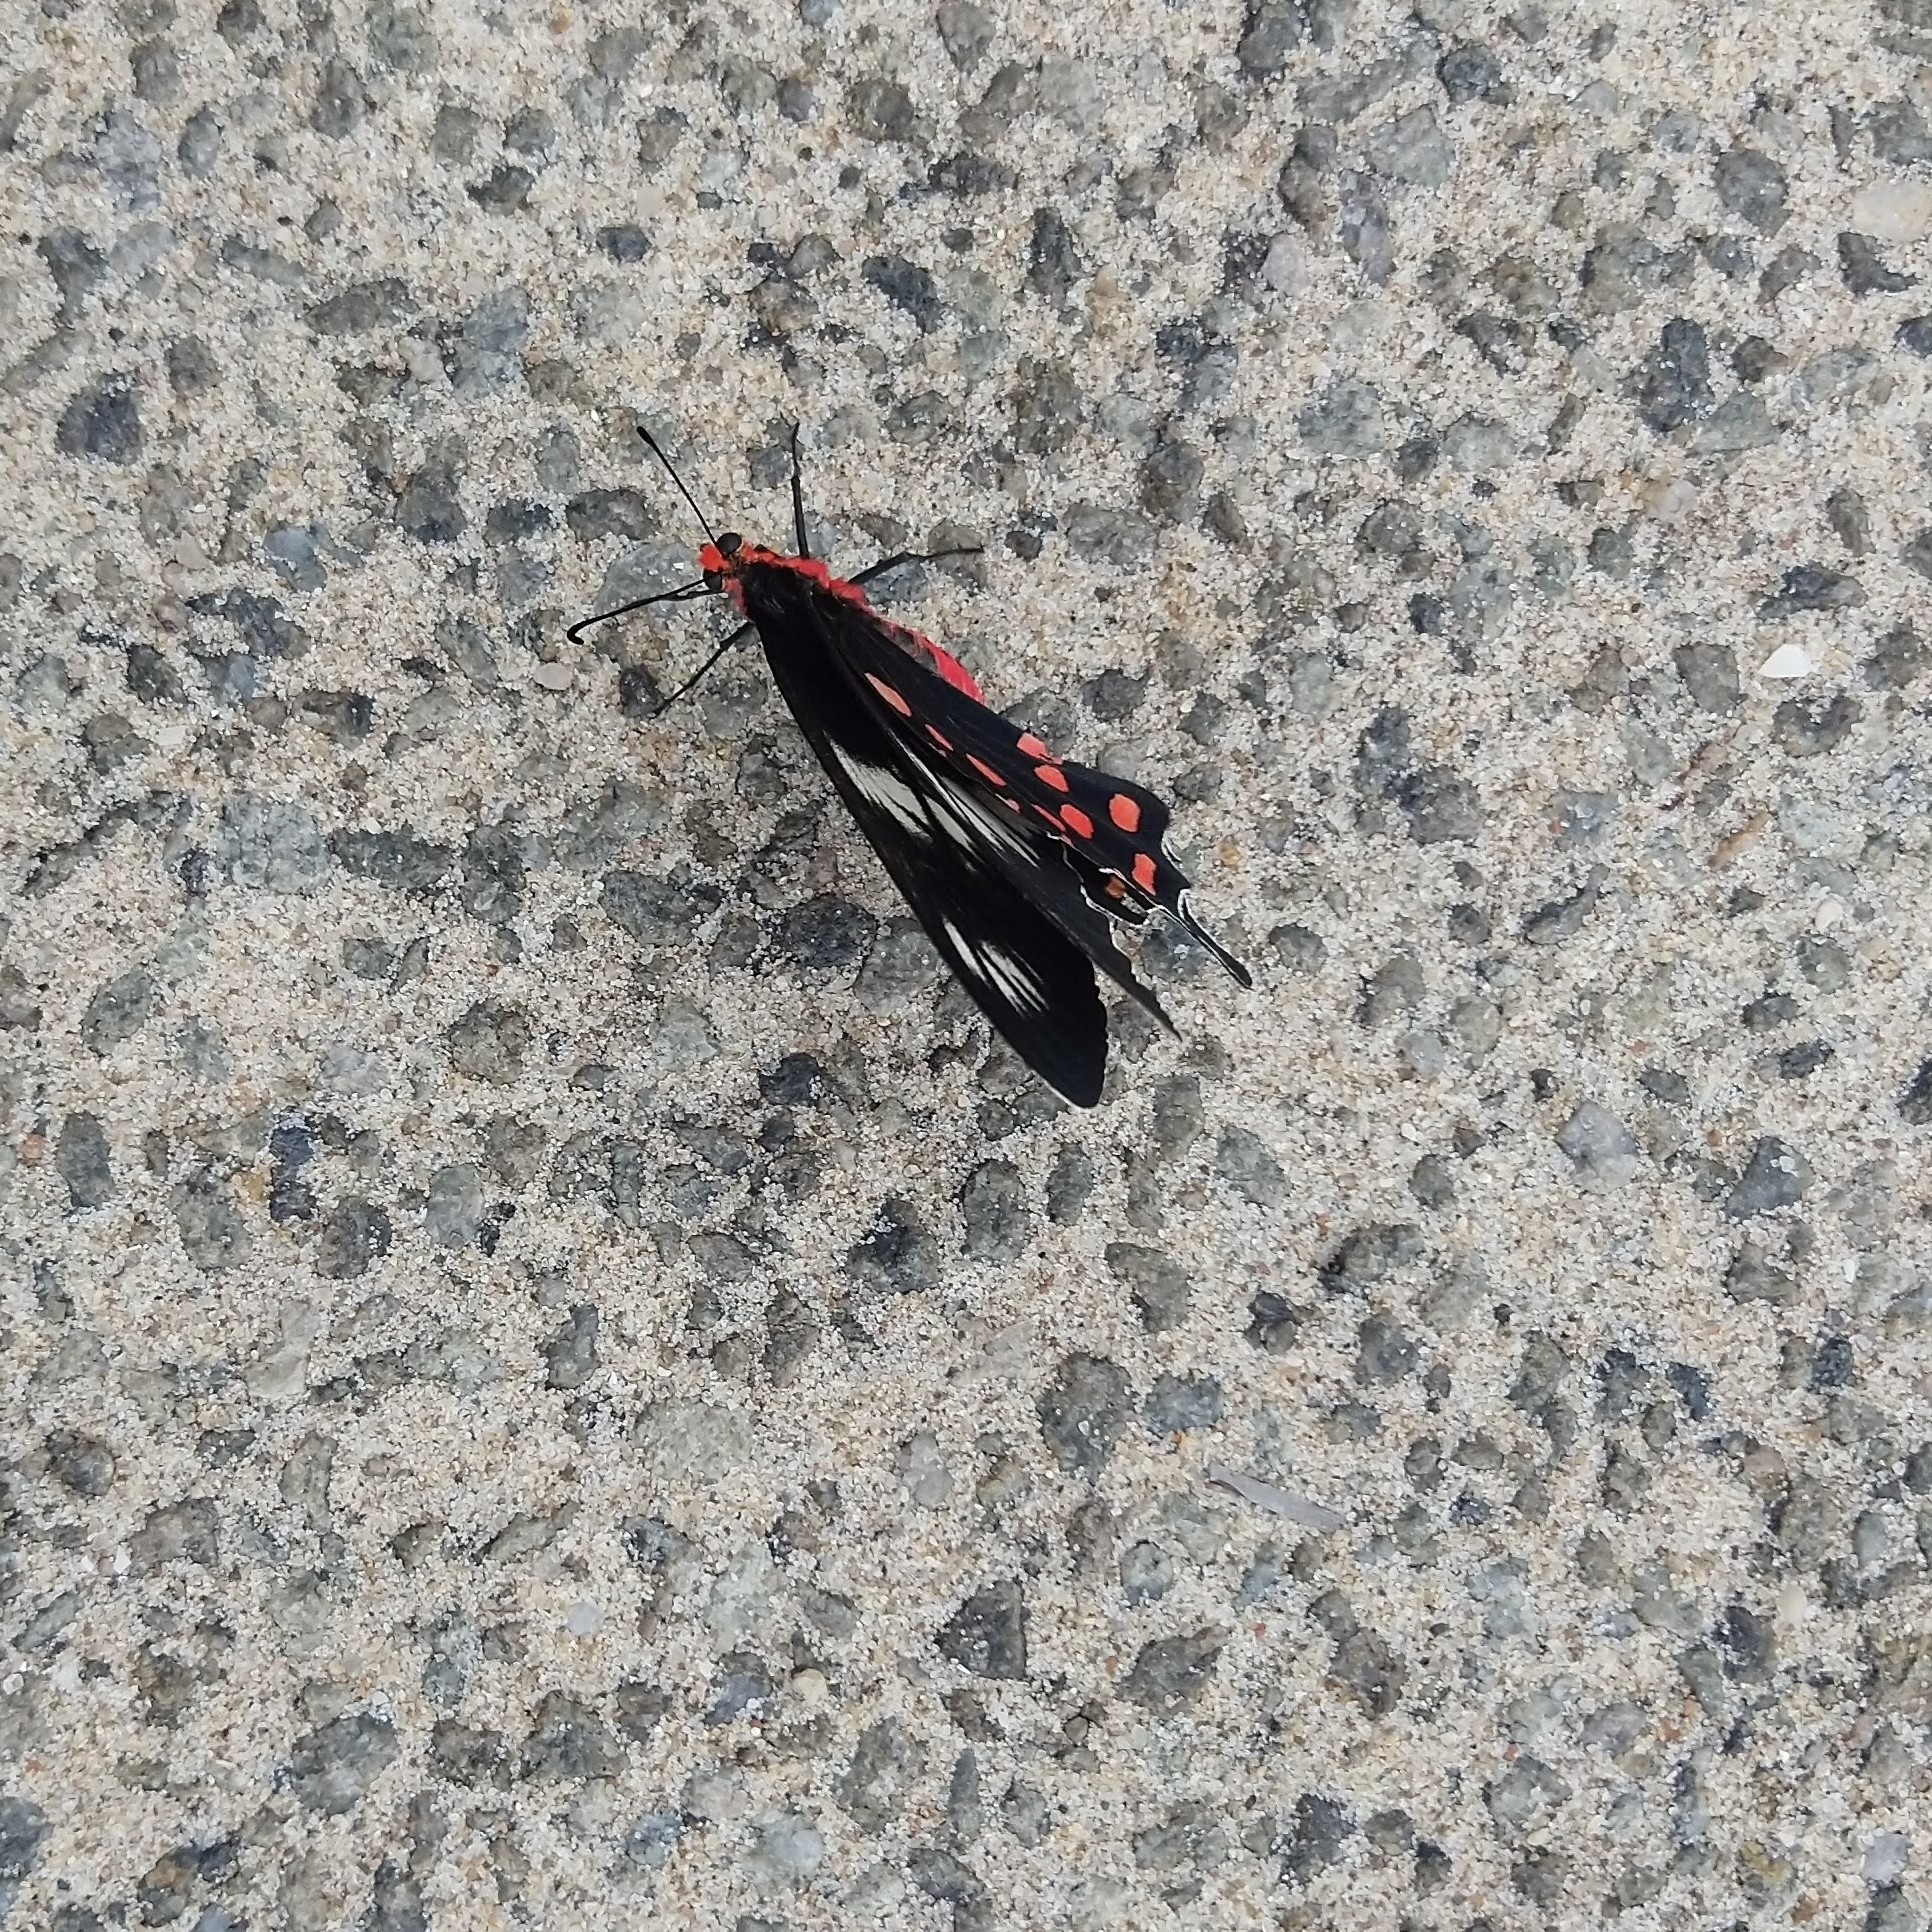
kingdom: Animalia
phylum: Arthropoda
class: Insecta
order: Lepidoptera
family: Papilionidae
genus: Pachliopta
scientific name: Pachliopta hector
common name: Crimson rose
